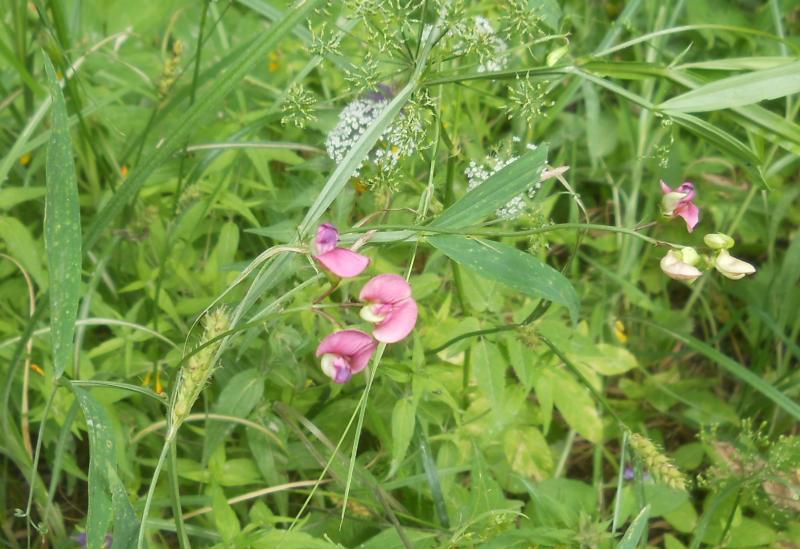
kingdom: Plantae
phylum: Tracheophyta
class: Magnoliopsida
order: Fabales
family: Fabaceae
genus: Lathyrus
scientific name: Lathyrus sylvestris
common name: Flat pea
